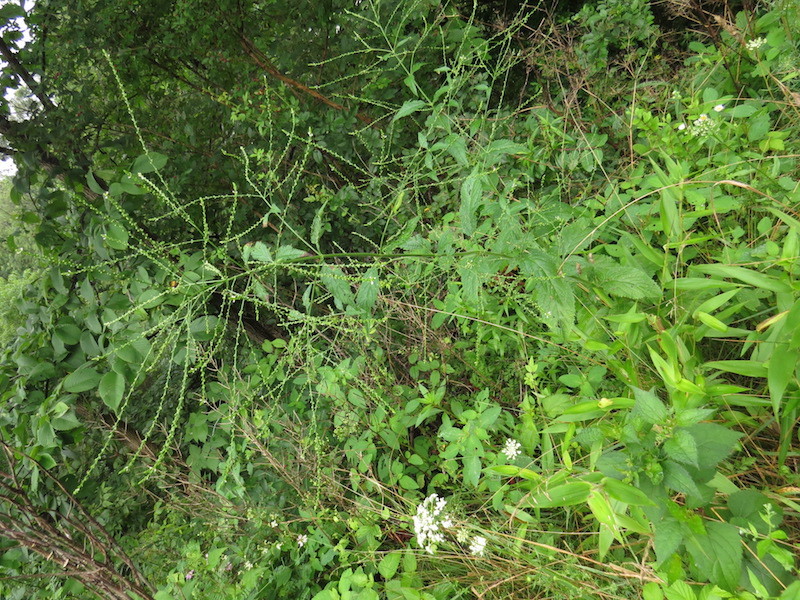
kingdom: Plantae
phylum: Tracheophyta
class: Magnoliopsida
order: Lamiales
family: Verbenaceae
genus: Verbena
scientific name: Verbena urticifolia
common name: Nettle-leaved vervain
